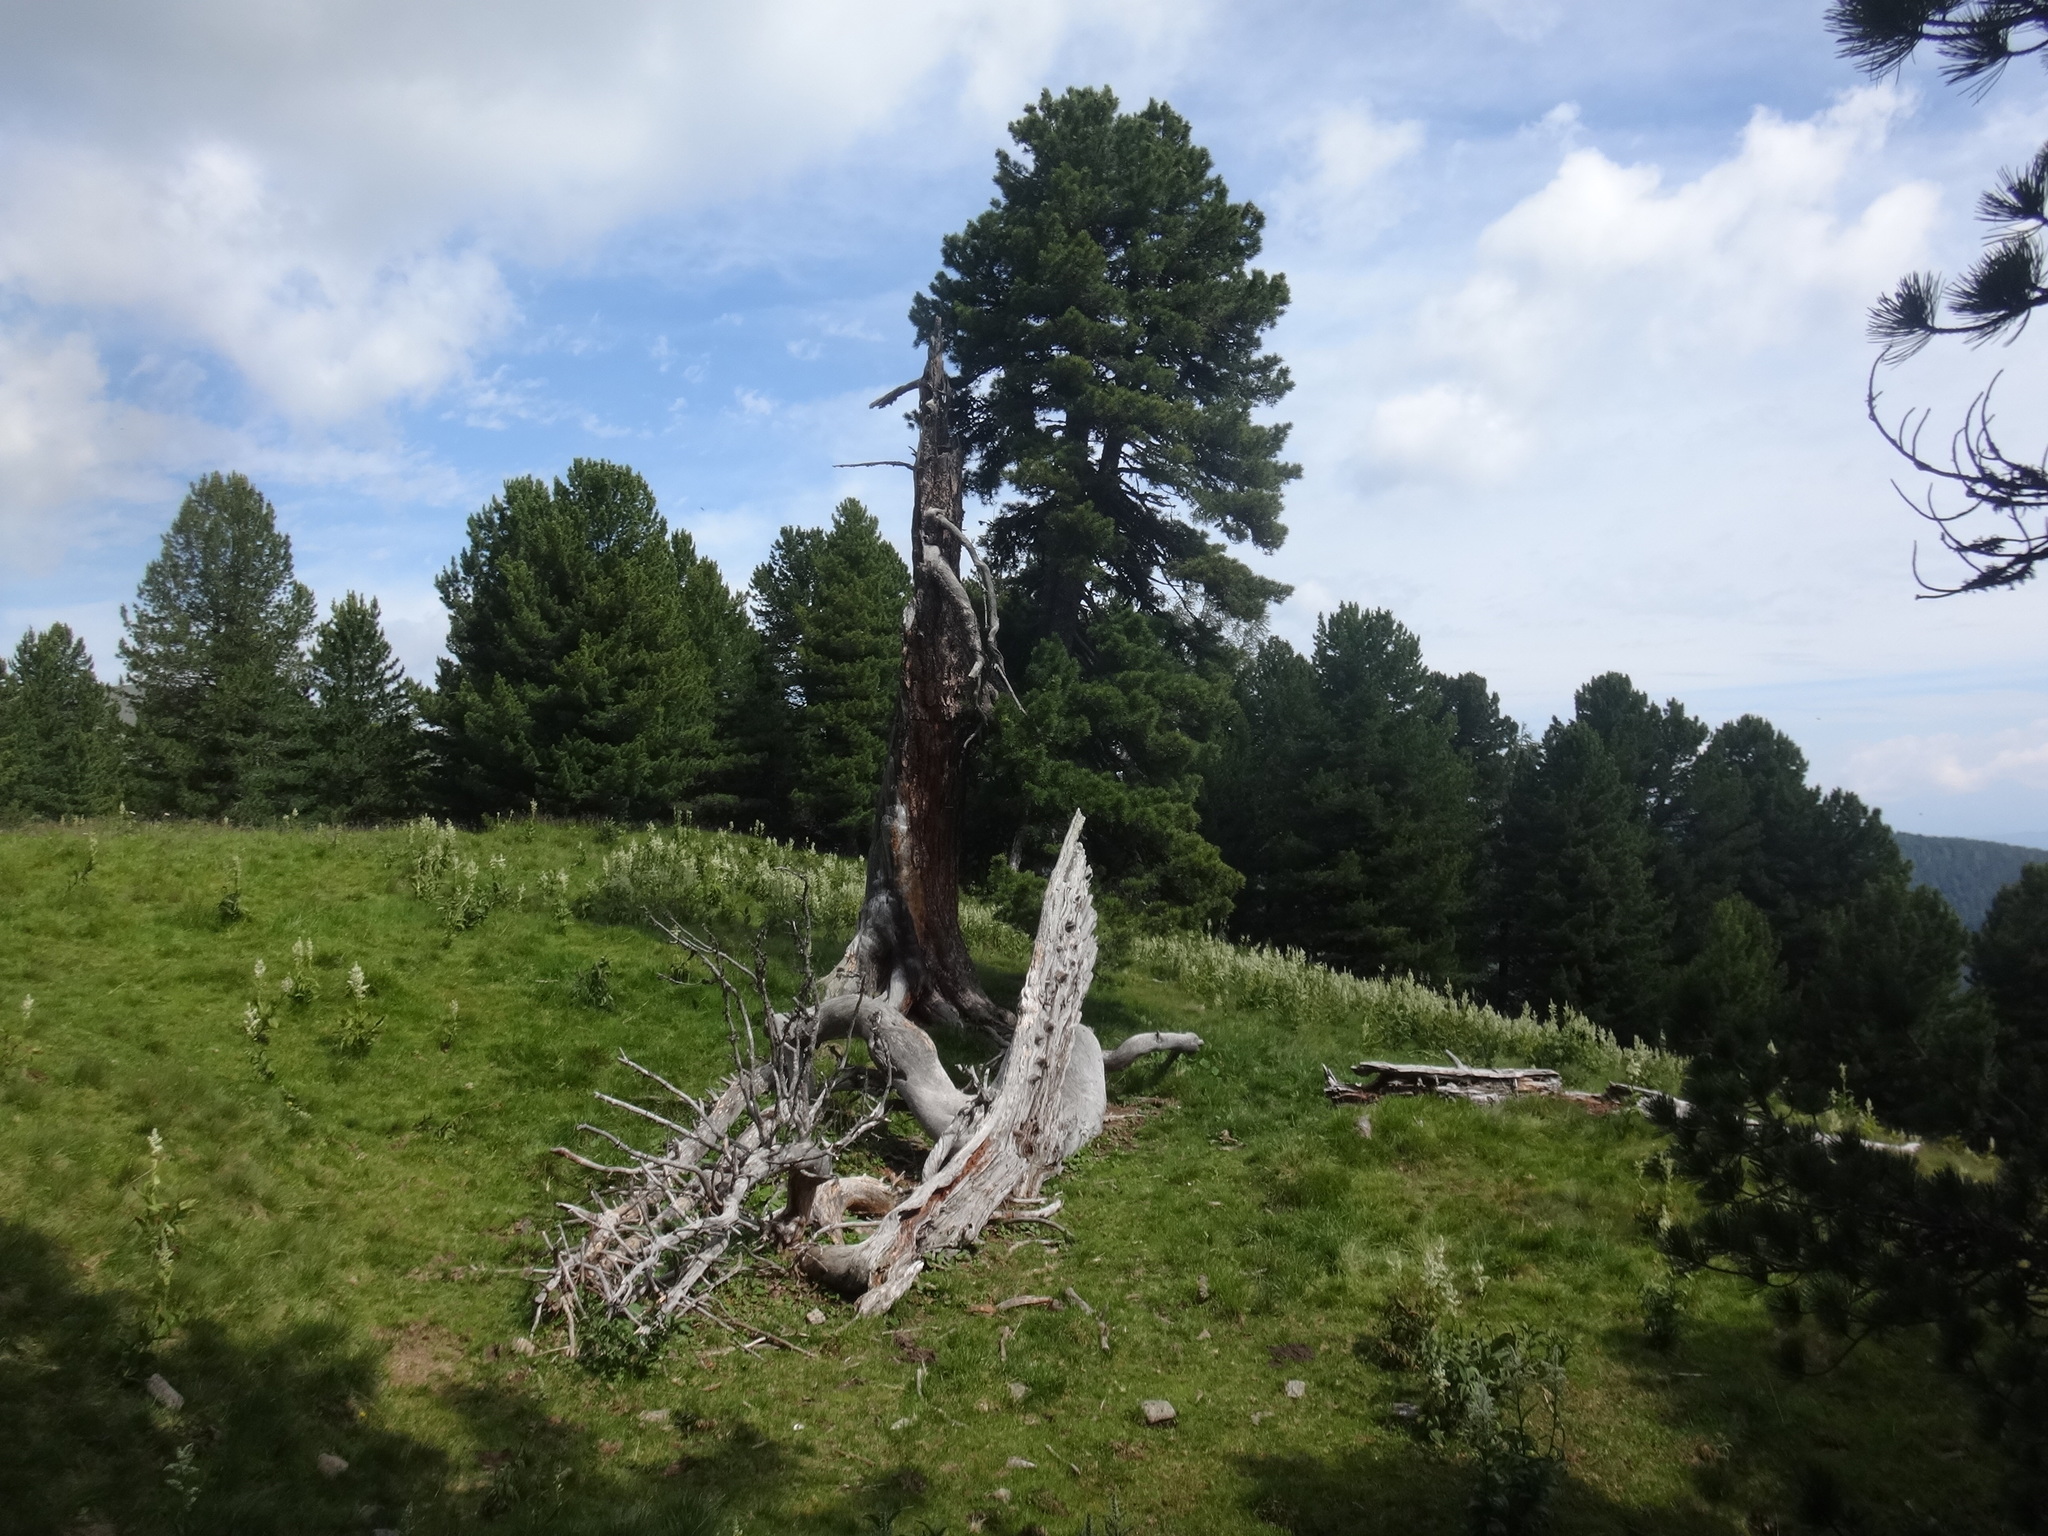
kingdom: Plantae
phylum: Tracheophyta
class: Pinopsida
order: Pinales
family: Pinaceae
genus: Pinus
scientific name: Pinus cembra
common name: Arolla pine
